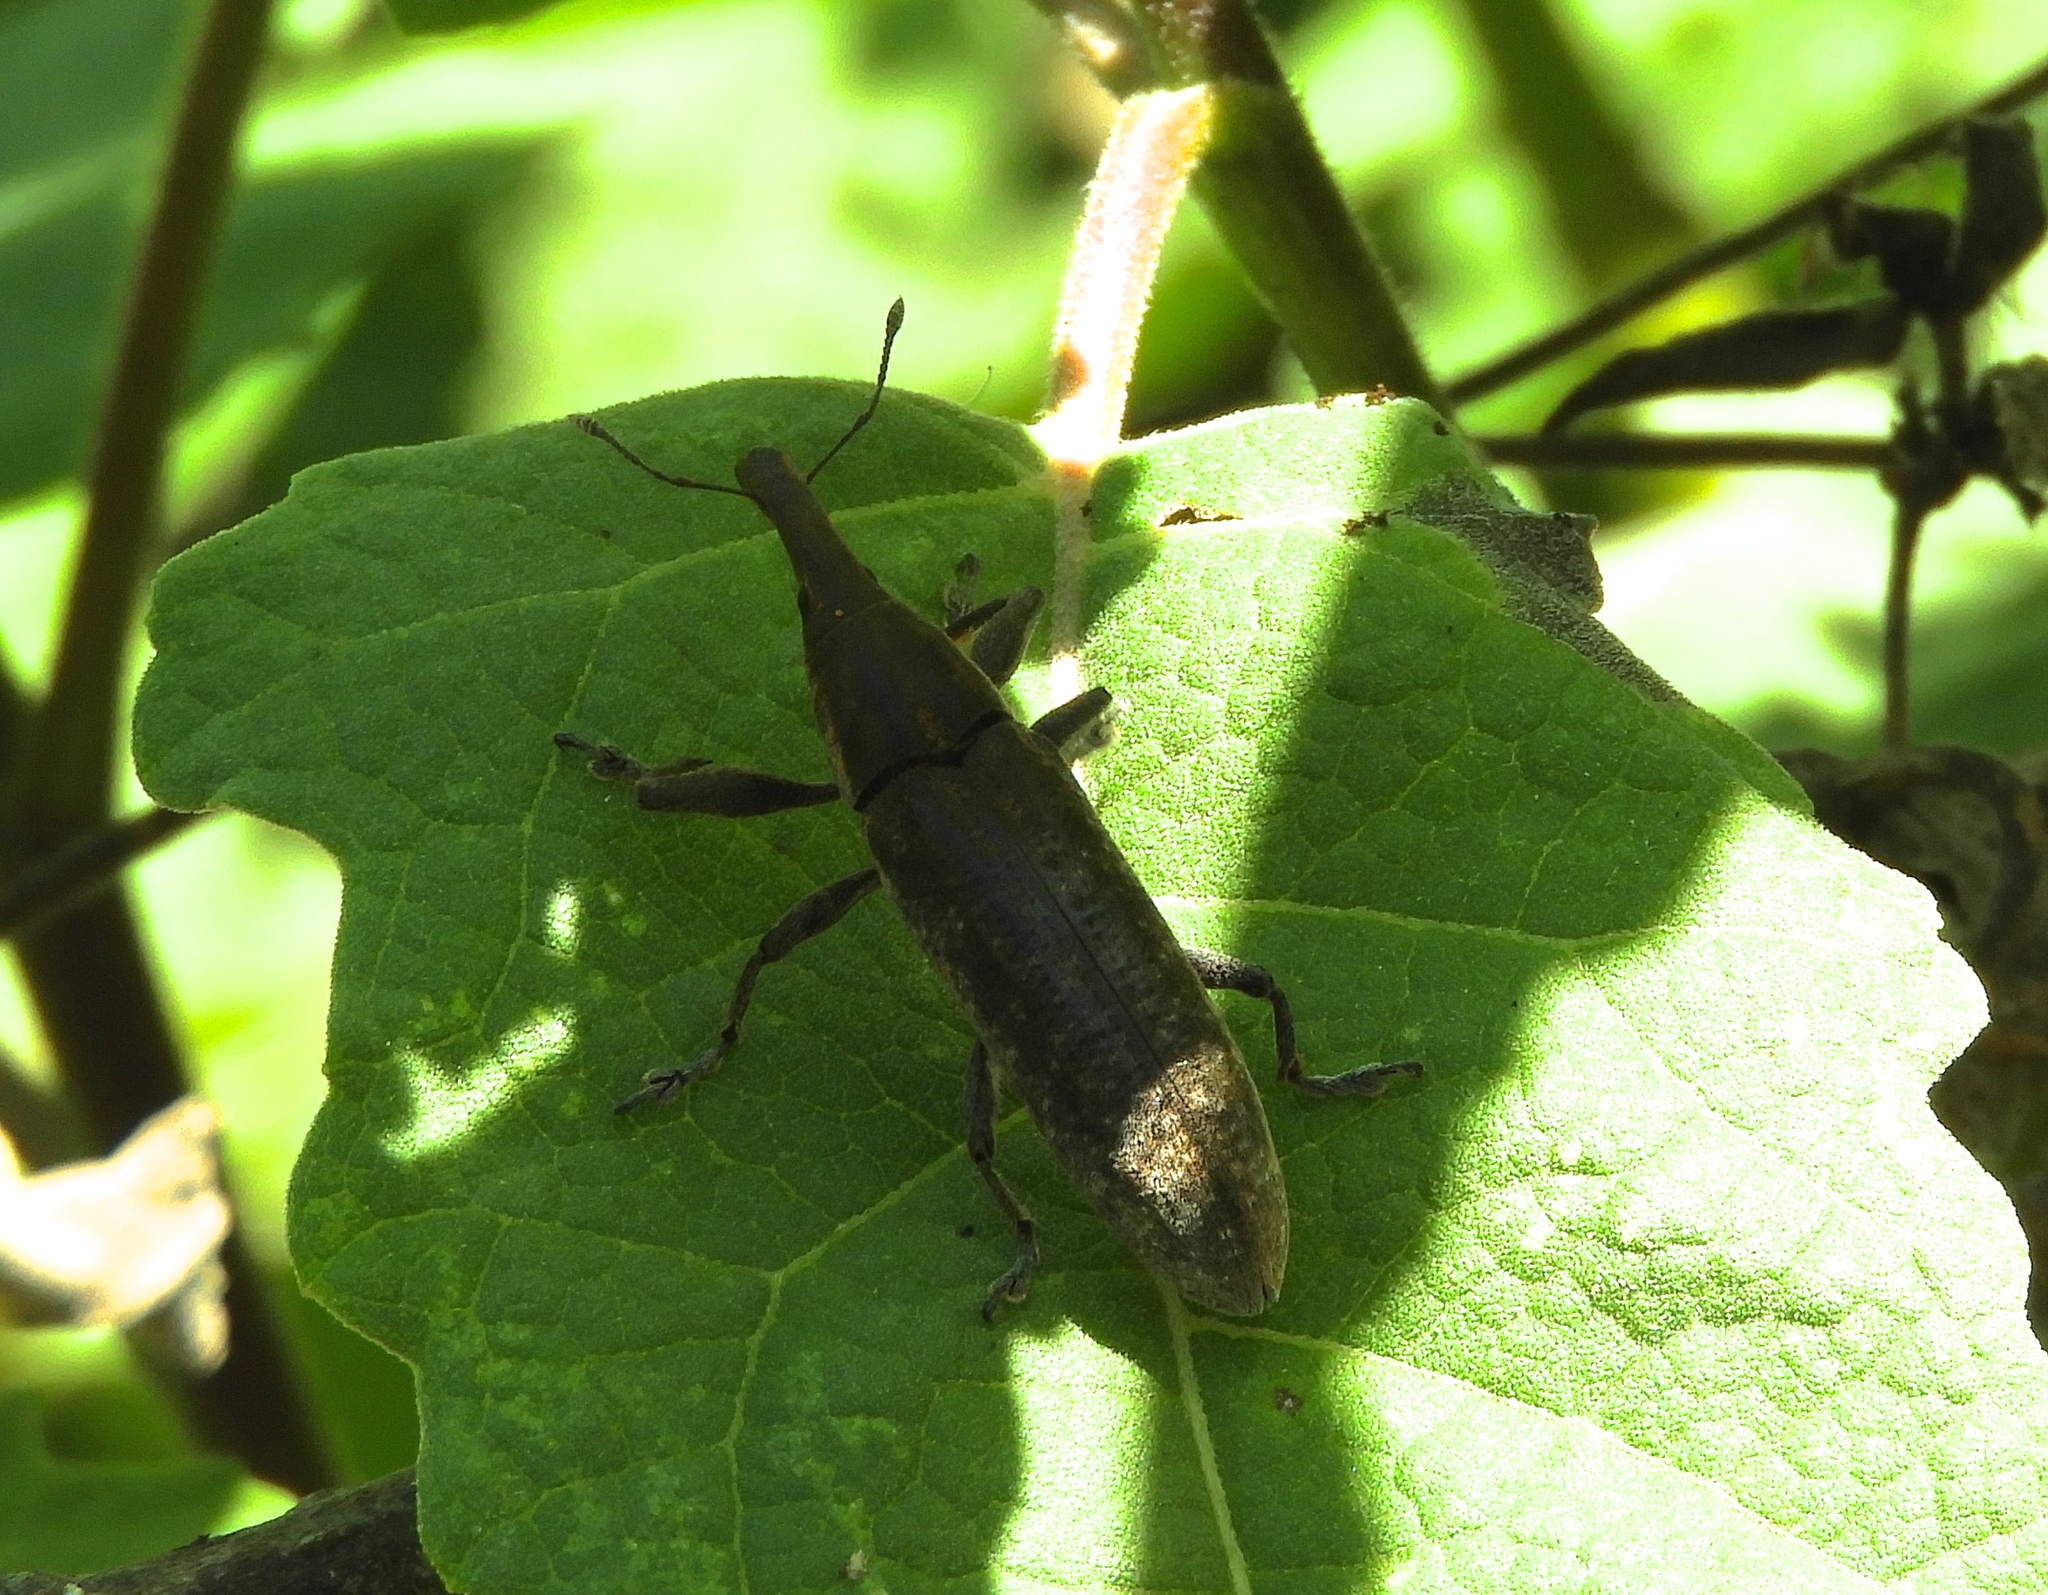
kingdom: Animalia
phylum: Arthropoda
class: Insecta
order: Coleoptera
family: Curculionidae
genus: Lixus
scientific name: Lixus
